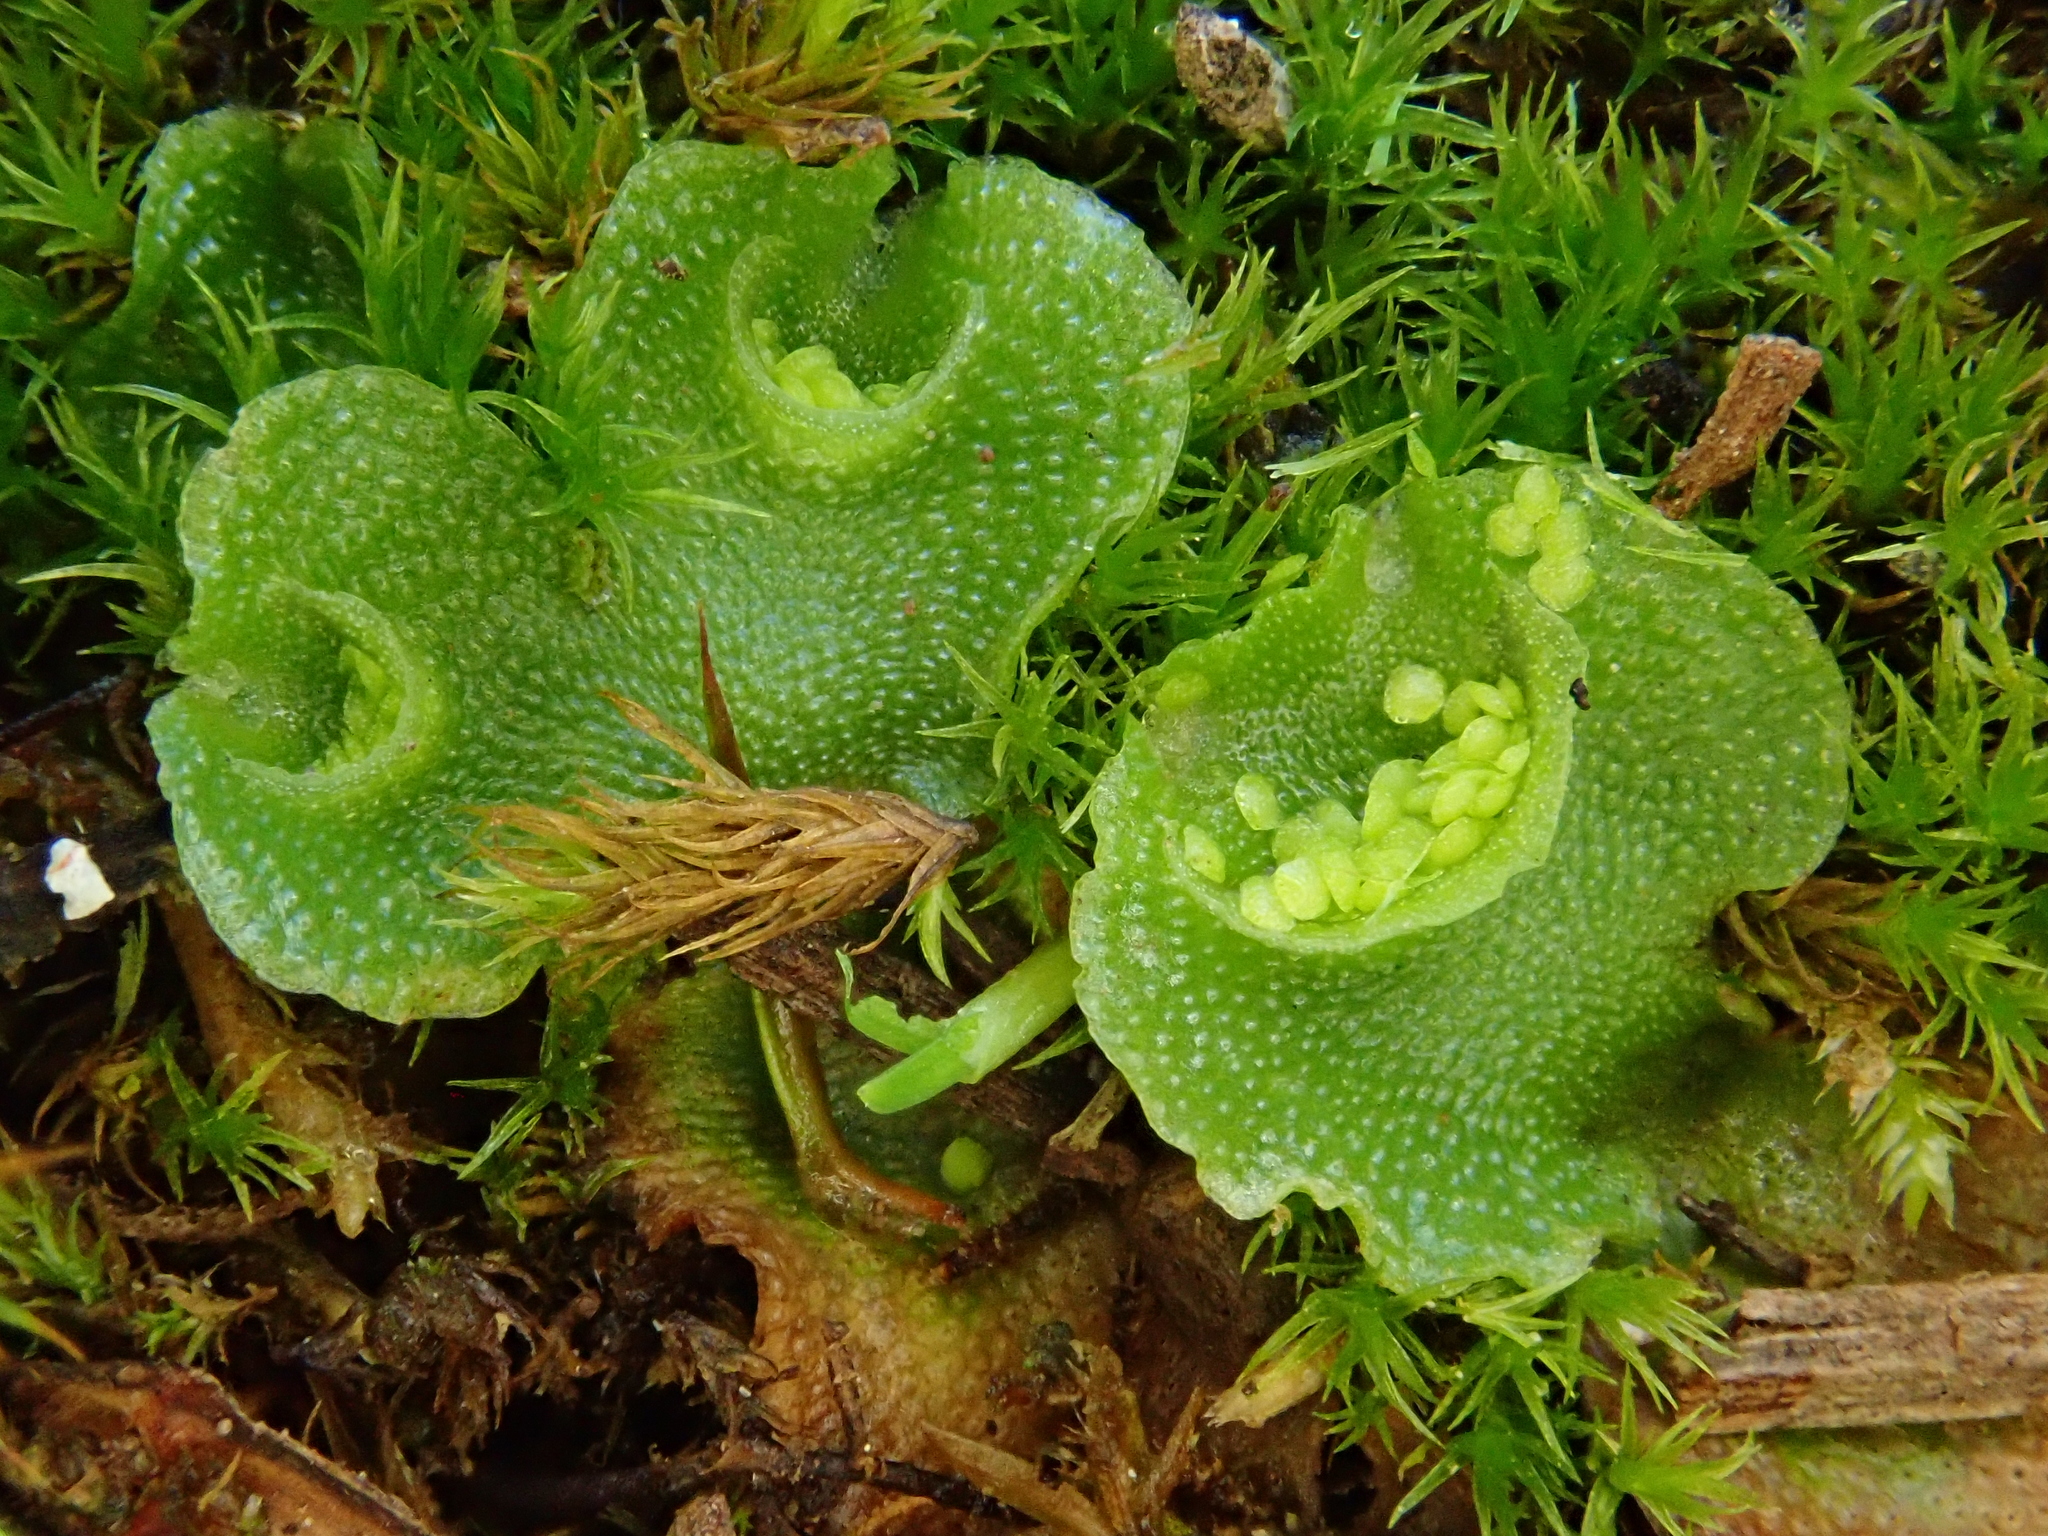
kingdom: Plantae
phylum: Marchantiophyta
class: Marchantiopsida
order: Lunulariales
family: Lunulariaceae
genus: Lunularia
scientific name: Lunularia cruciata
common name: Crescent-cup liverwort
